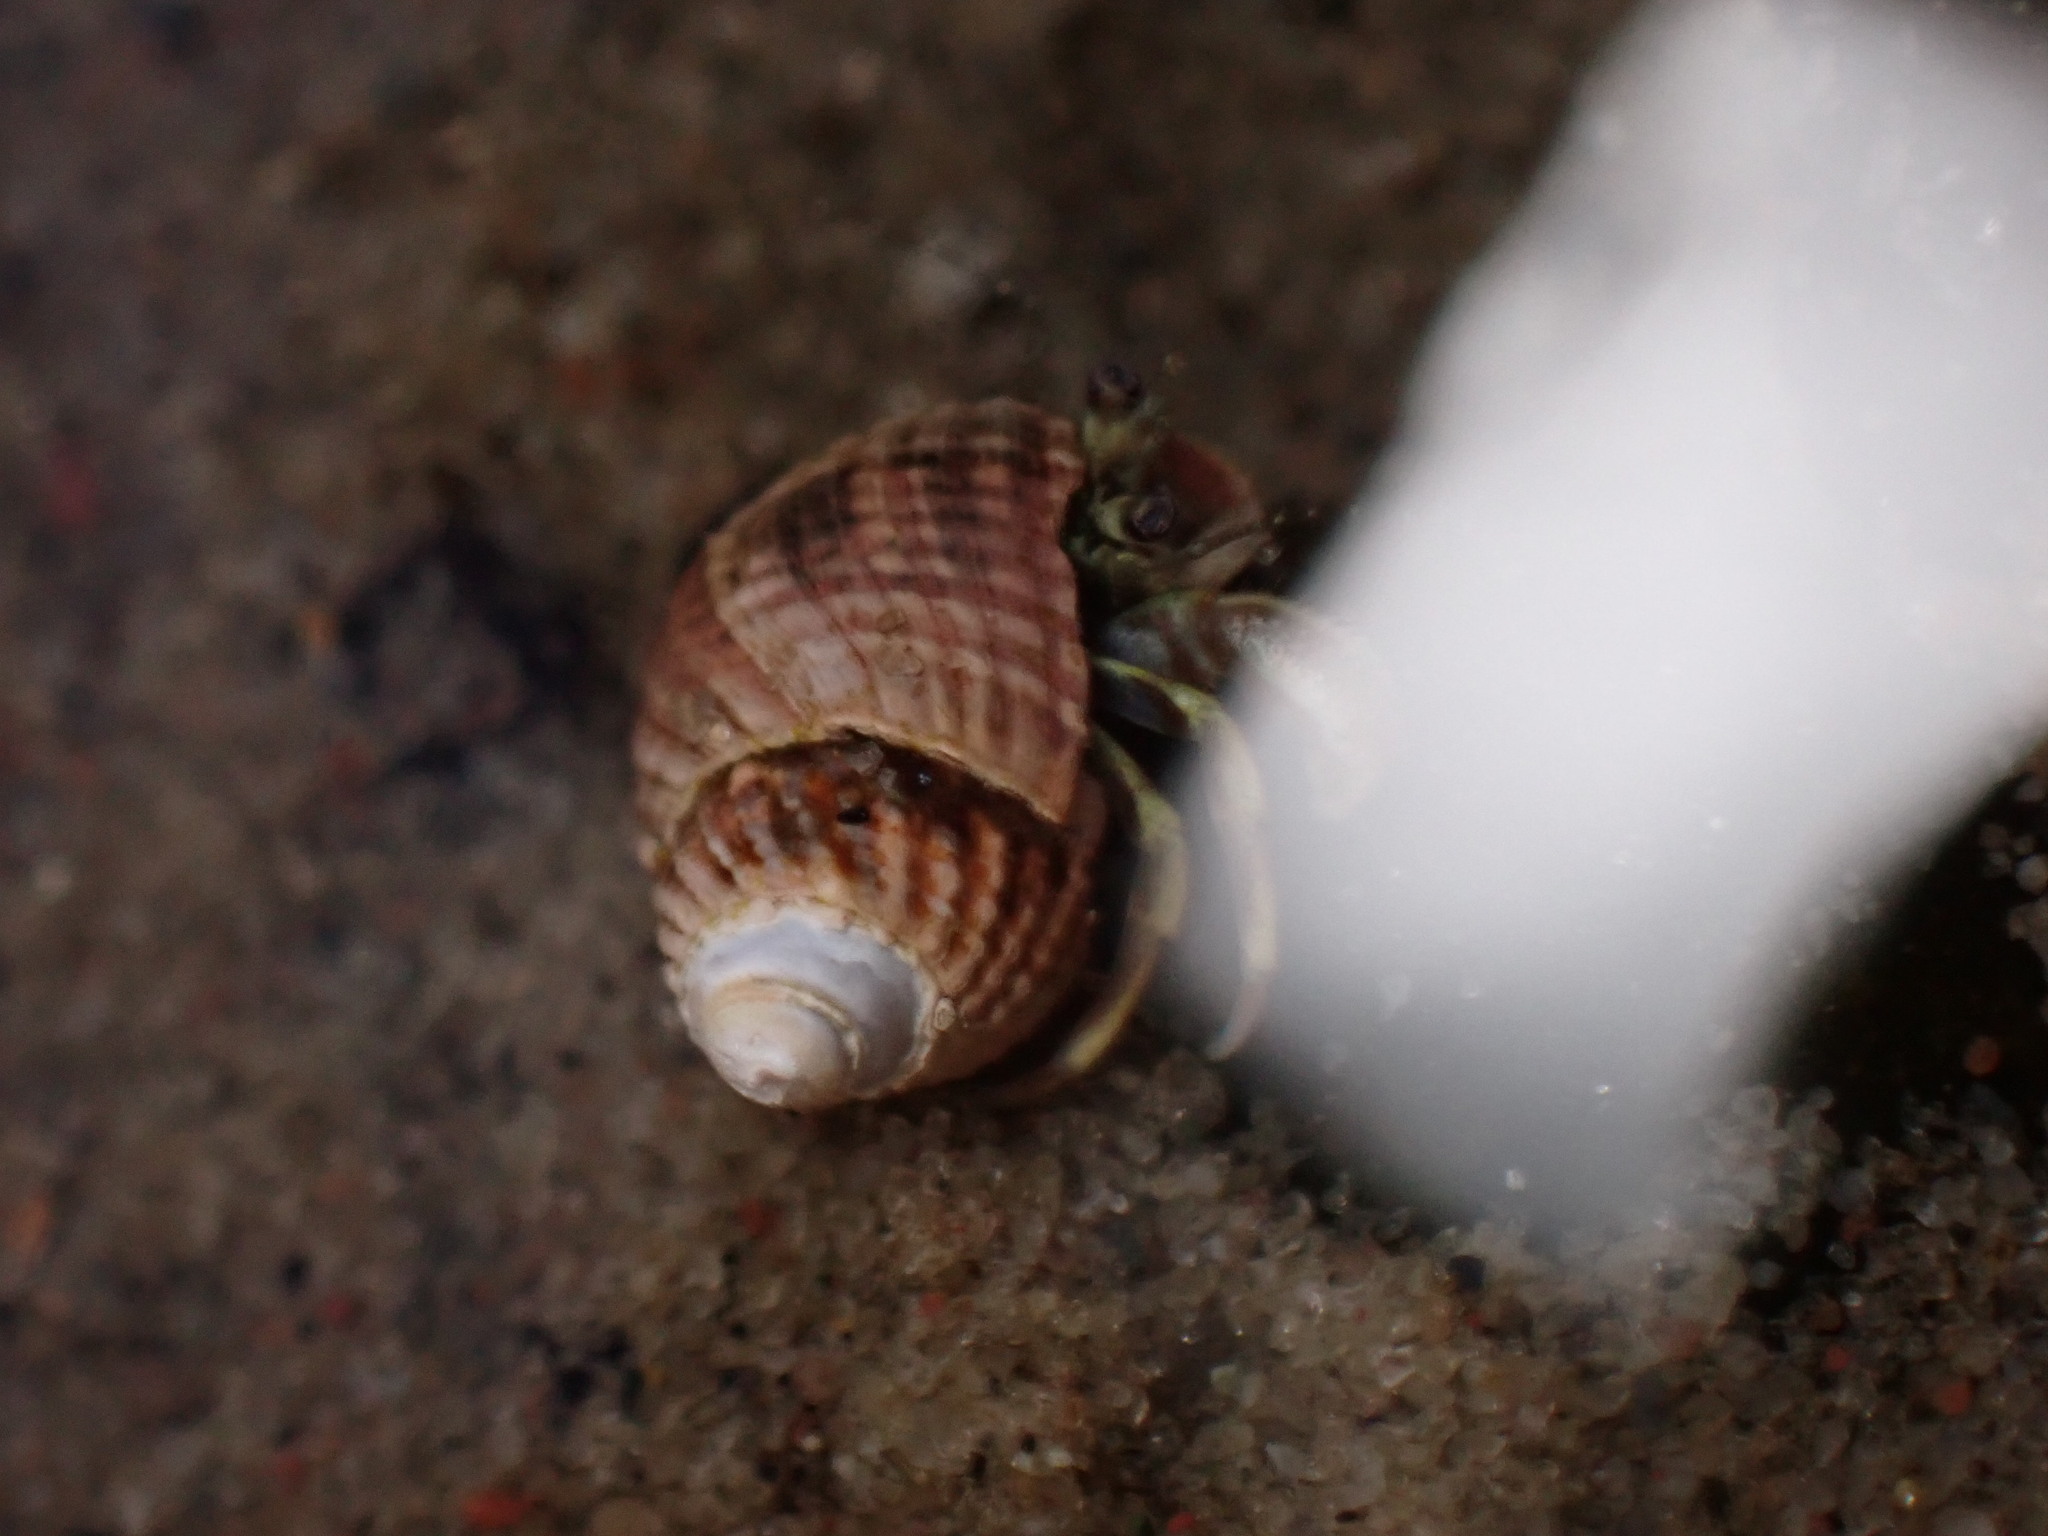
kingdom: Animalia
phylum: Arthropoda
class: Malacostraca
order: Decapoda
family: Paguridae
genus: Pagurus
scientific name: Pagurus longicarpus
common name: Long-armed hermit crab
